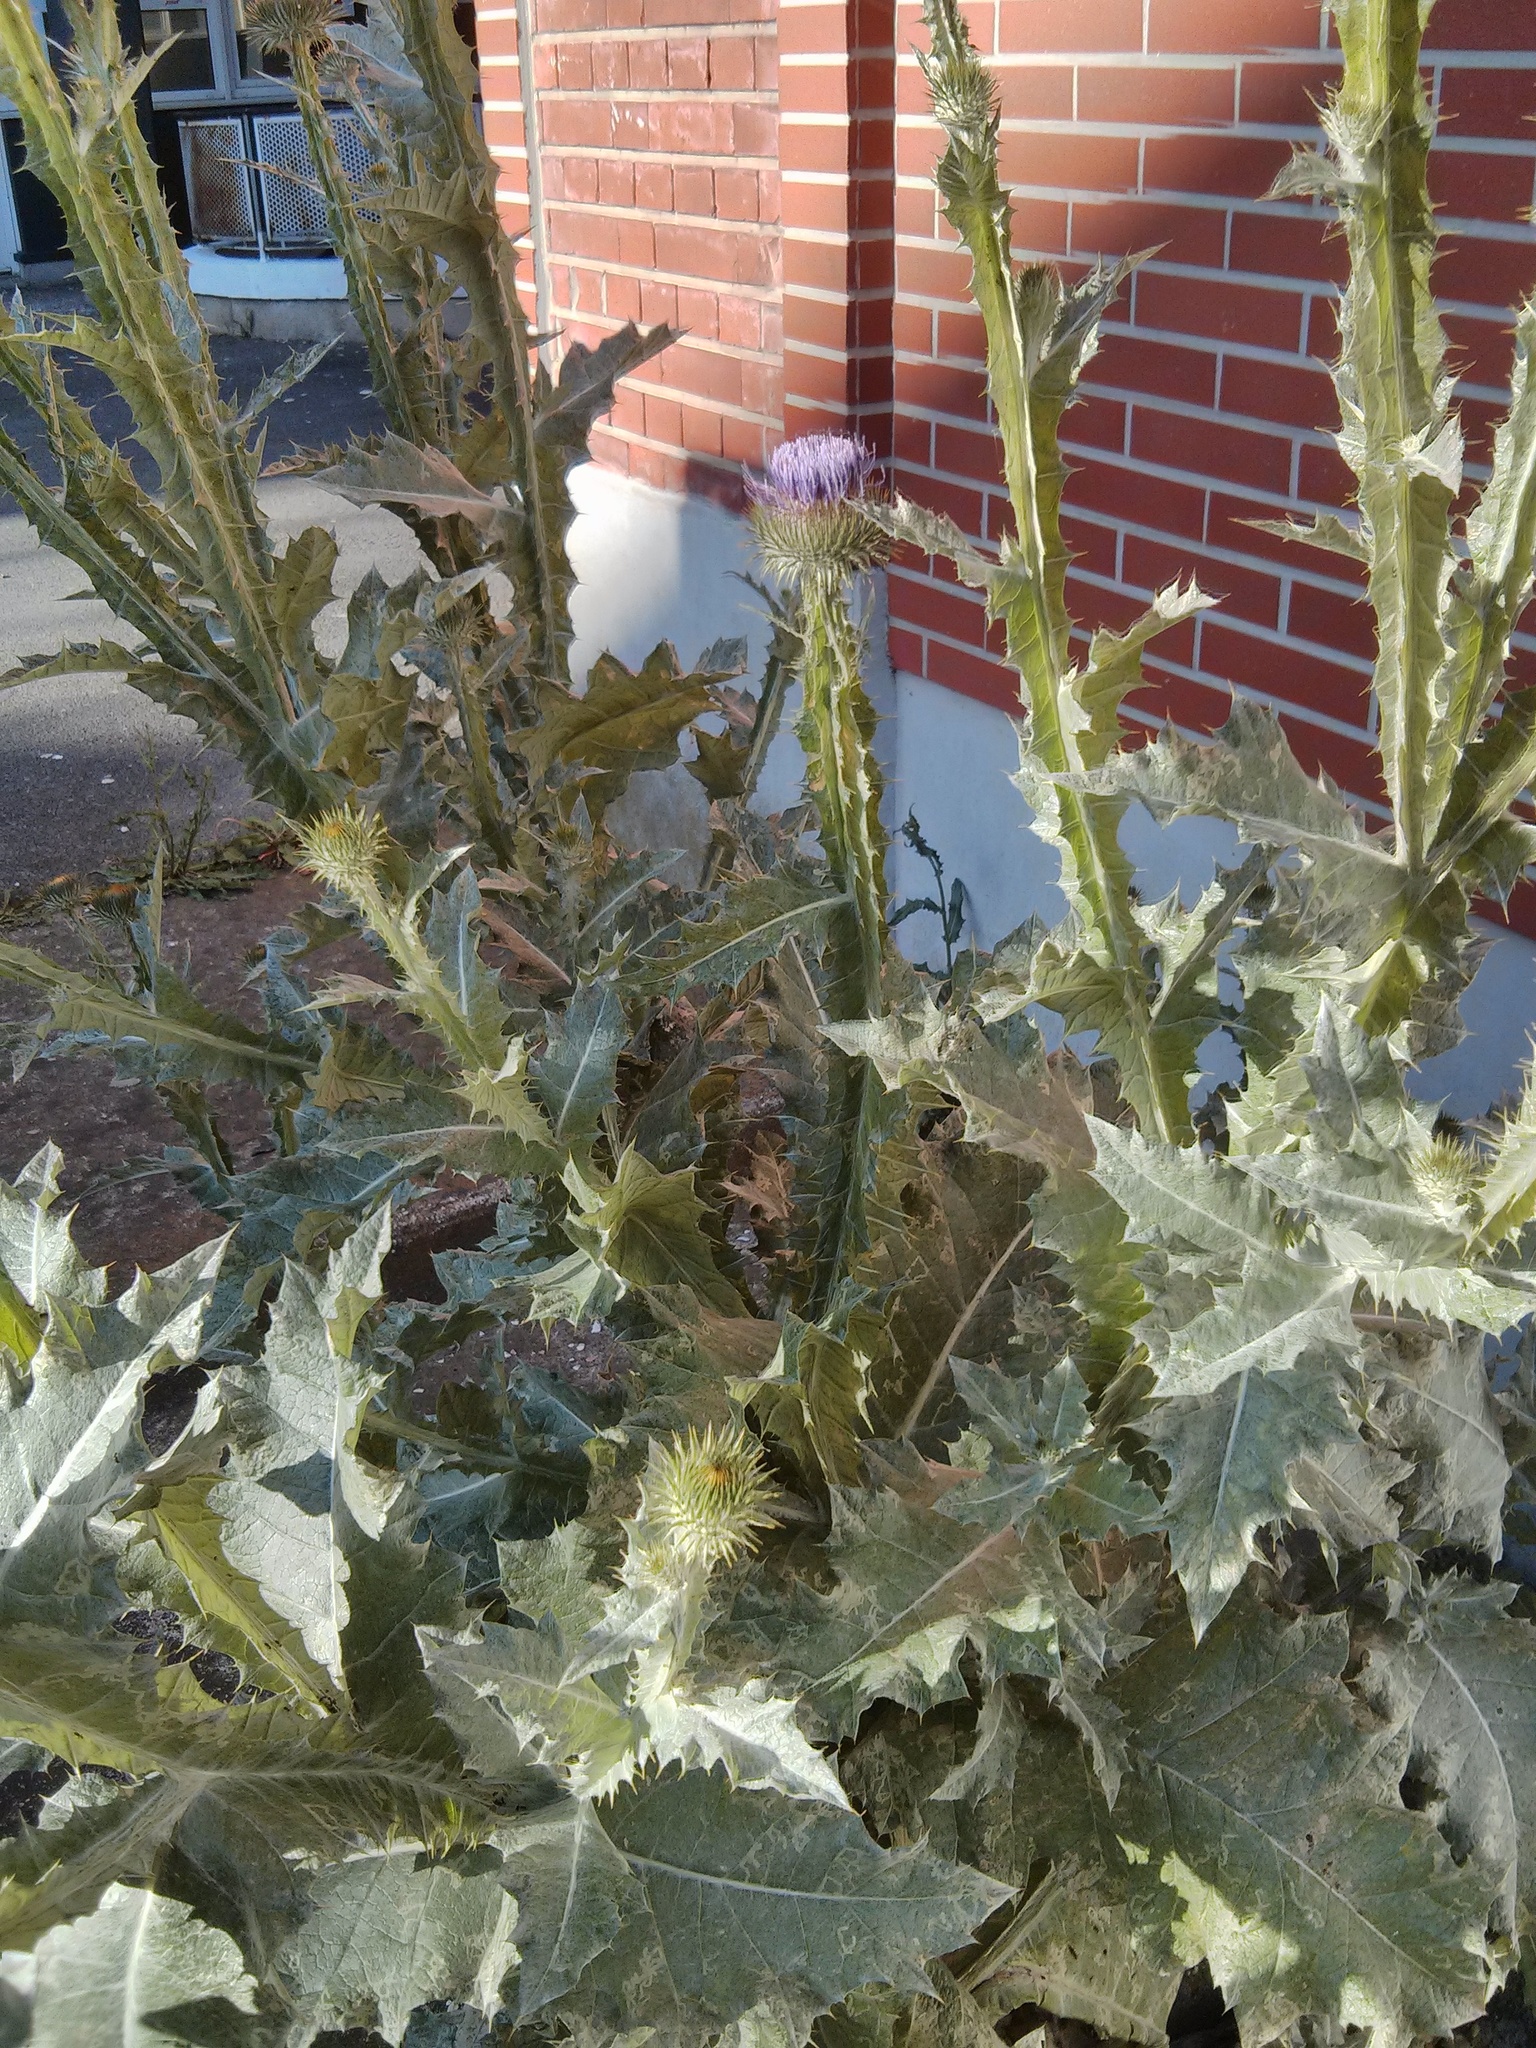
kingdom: Plantae
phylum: Tracheophyta
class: Magnoliopsida
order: Asterales
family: Asteraceae
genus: Onopordum
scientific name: Onopordum acanthium
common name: Scotch thistle
